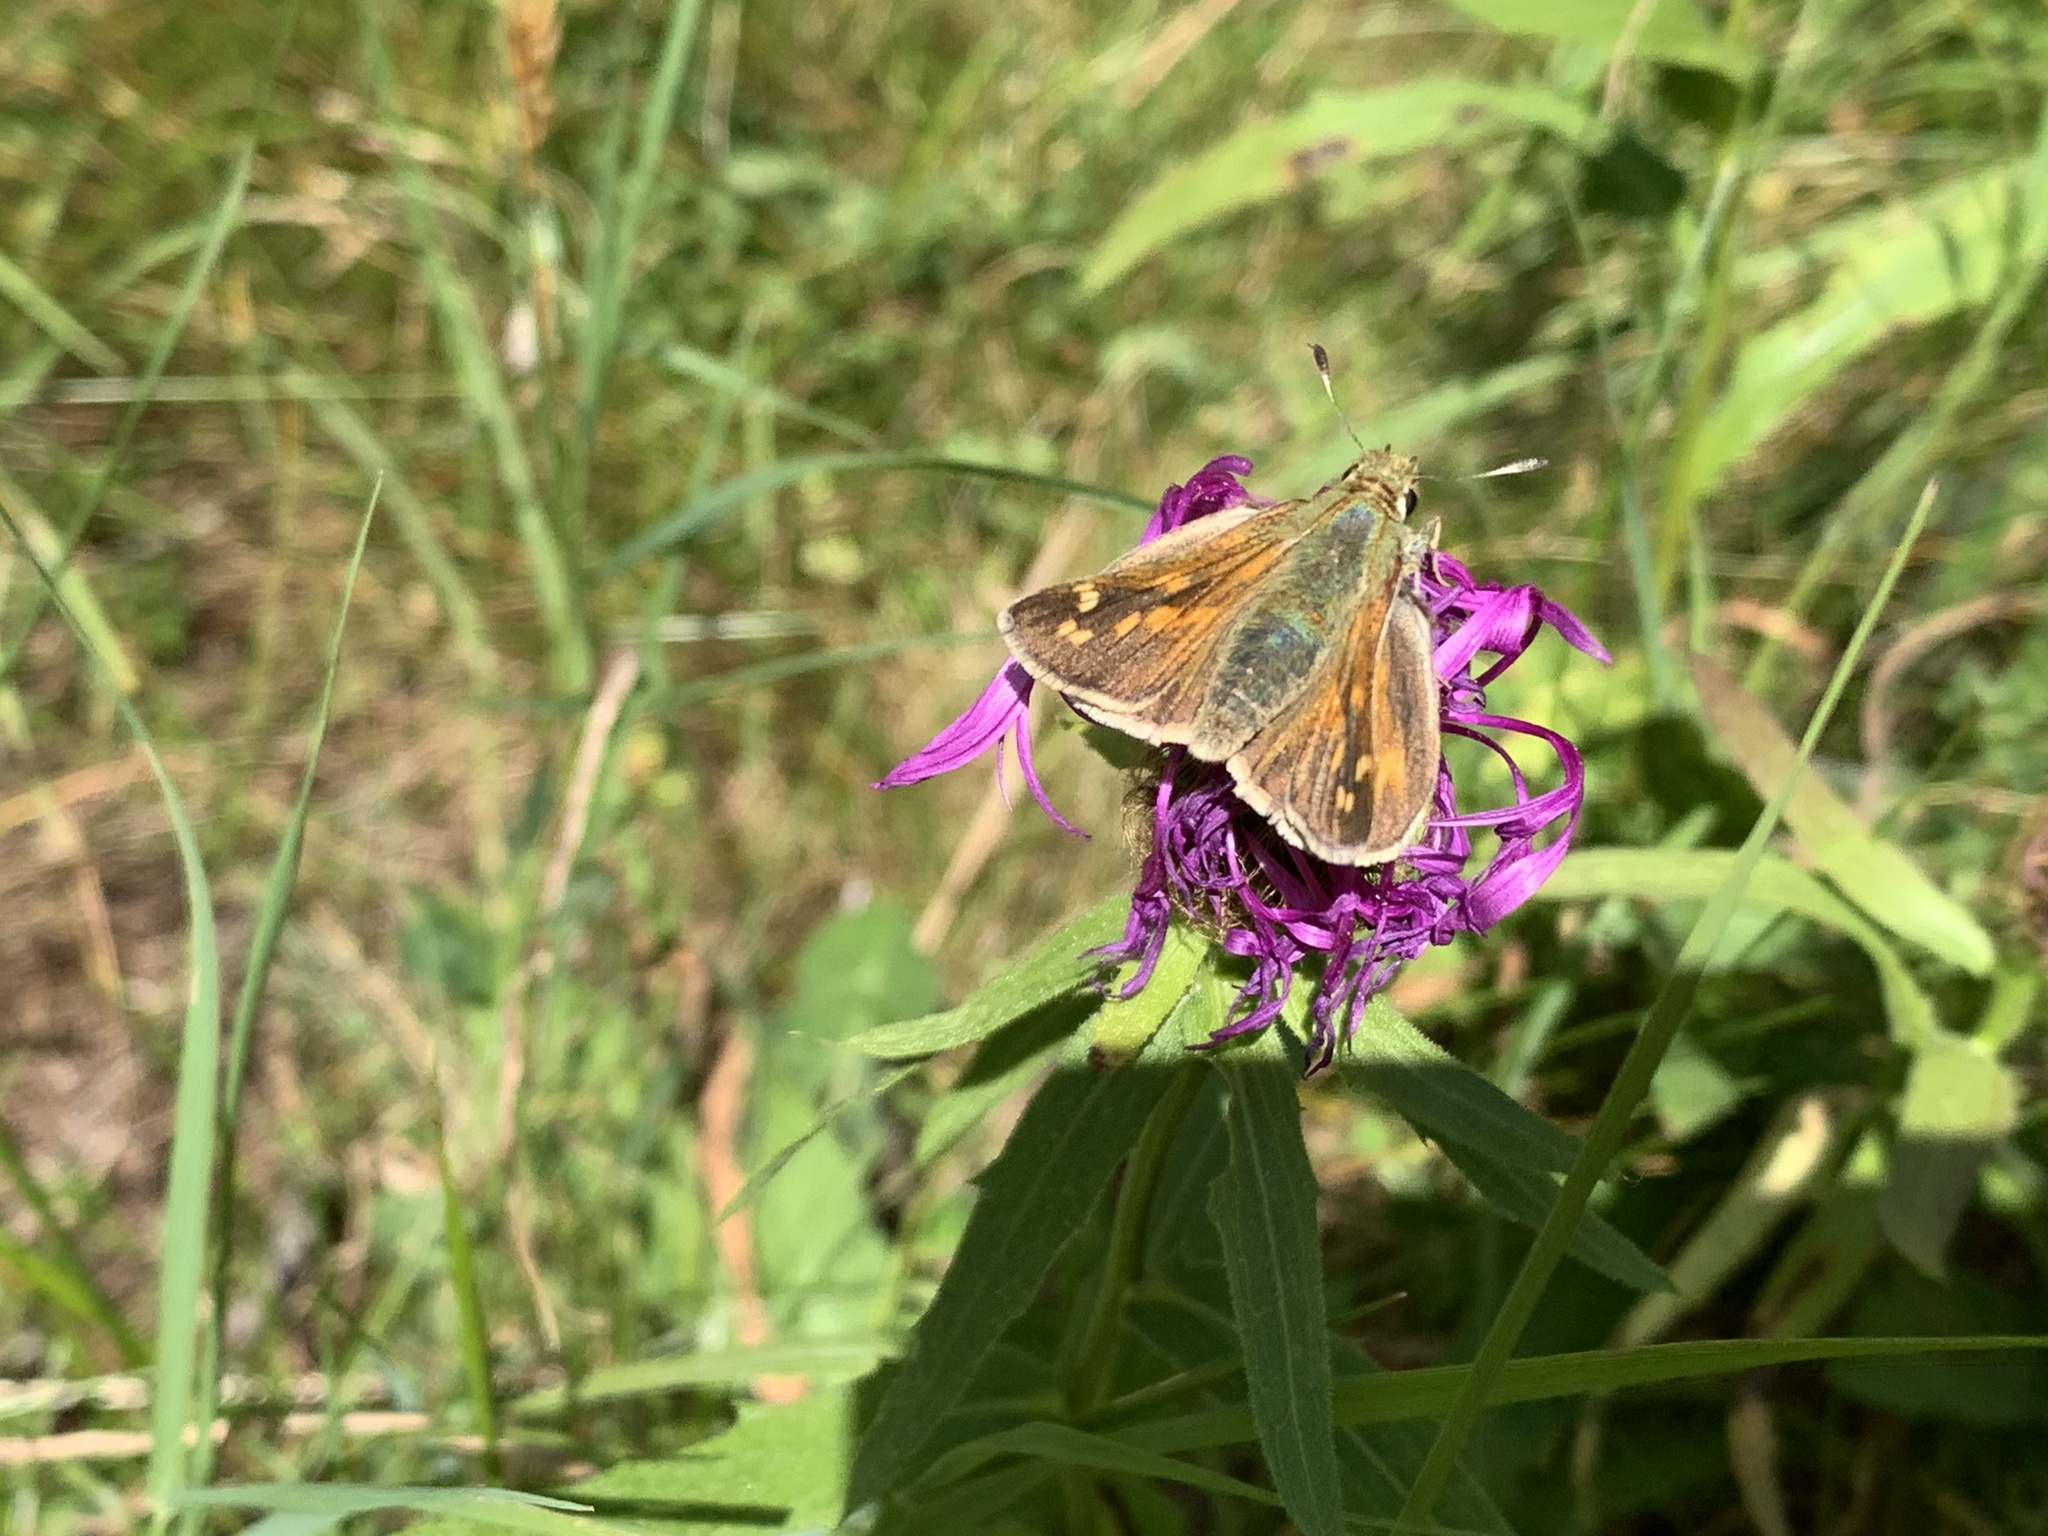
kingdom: Animalia
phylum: Arthropoda
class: Insecta
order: Lepidoptera
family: Hesperiidae
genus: Hesperia
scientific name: Hesperia comma
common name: Common branded skipper
